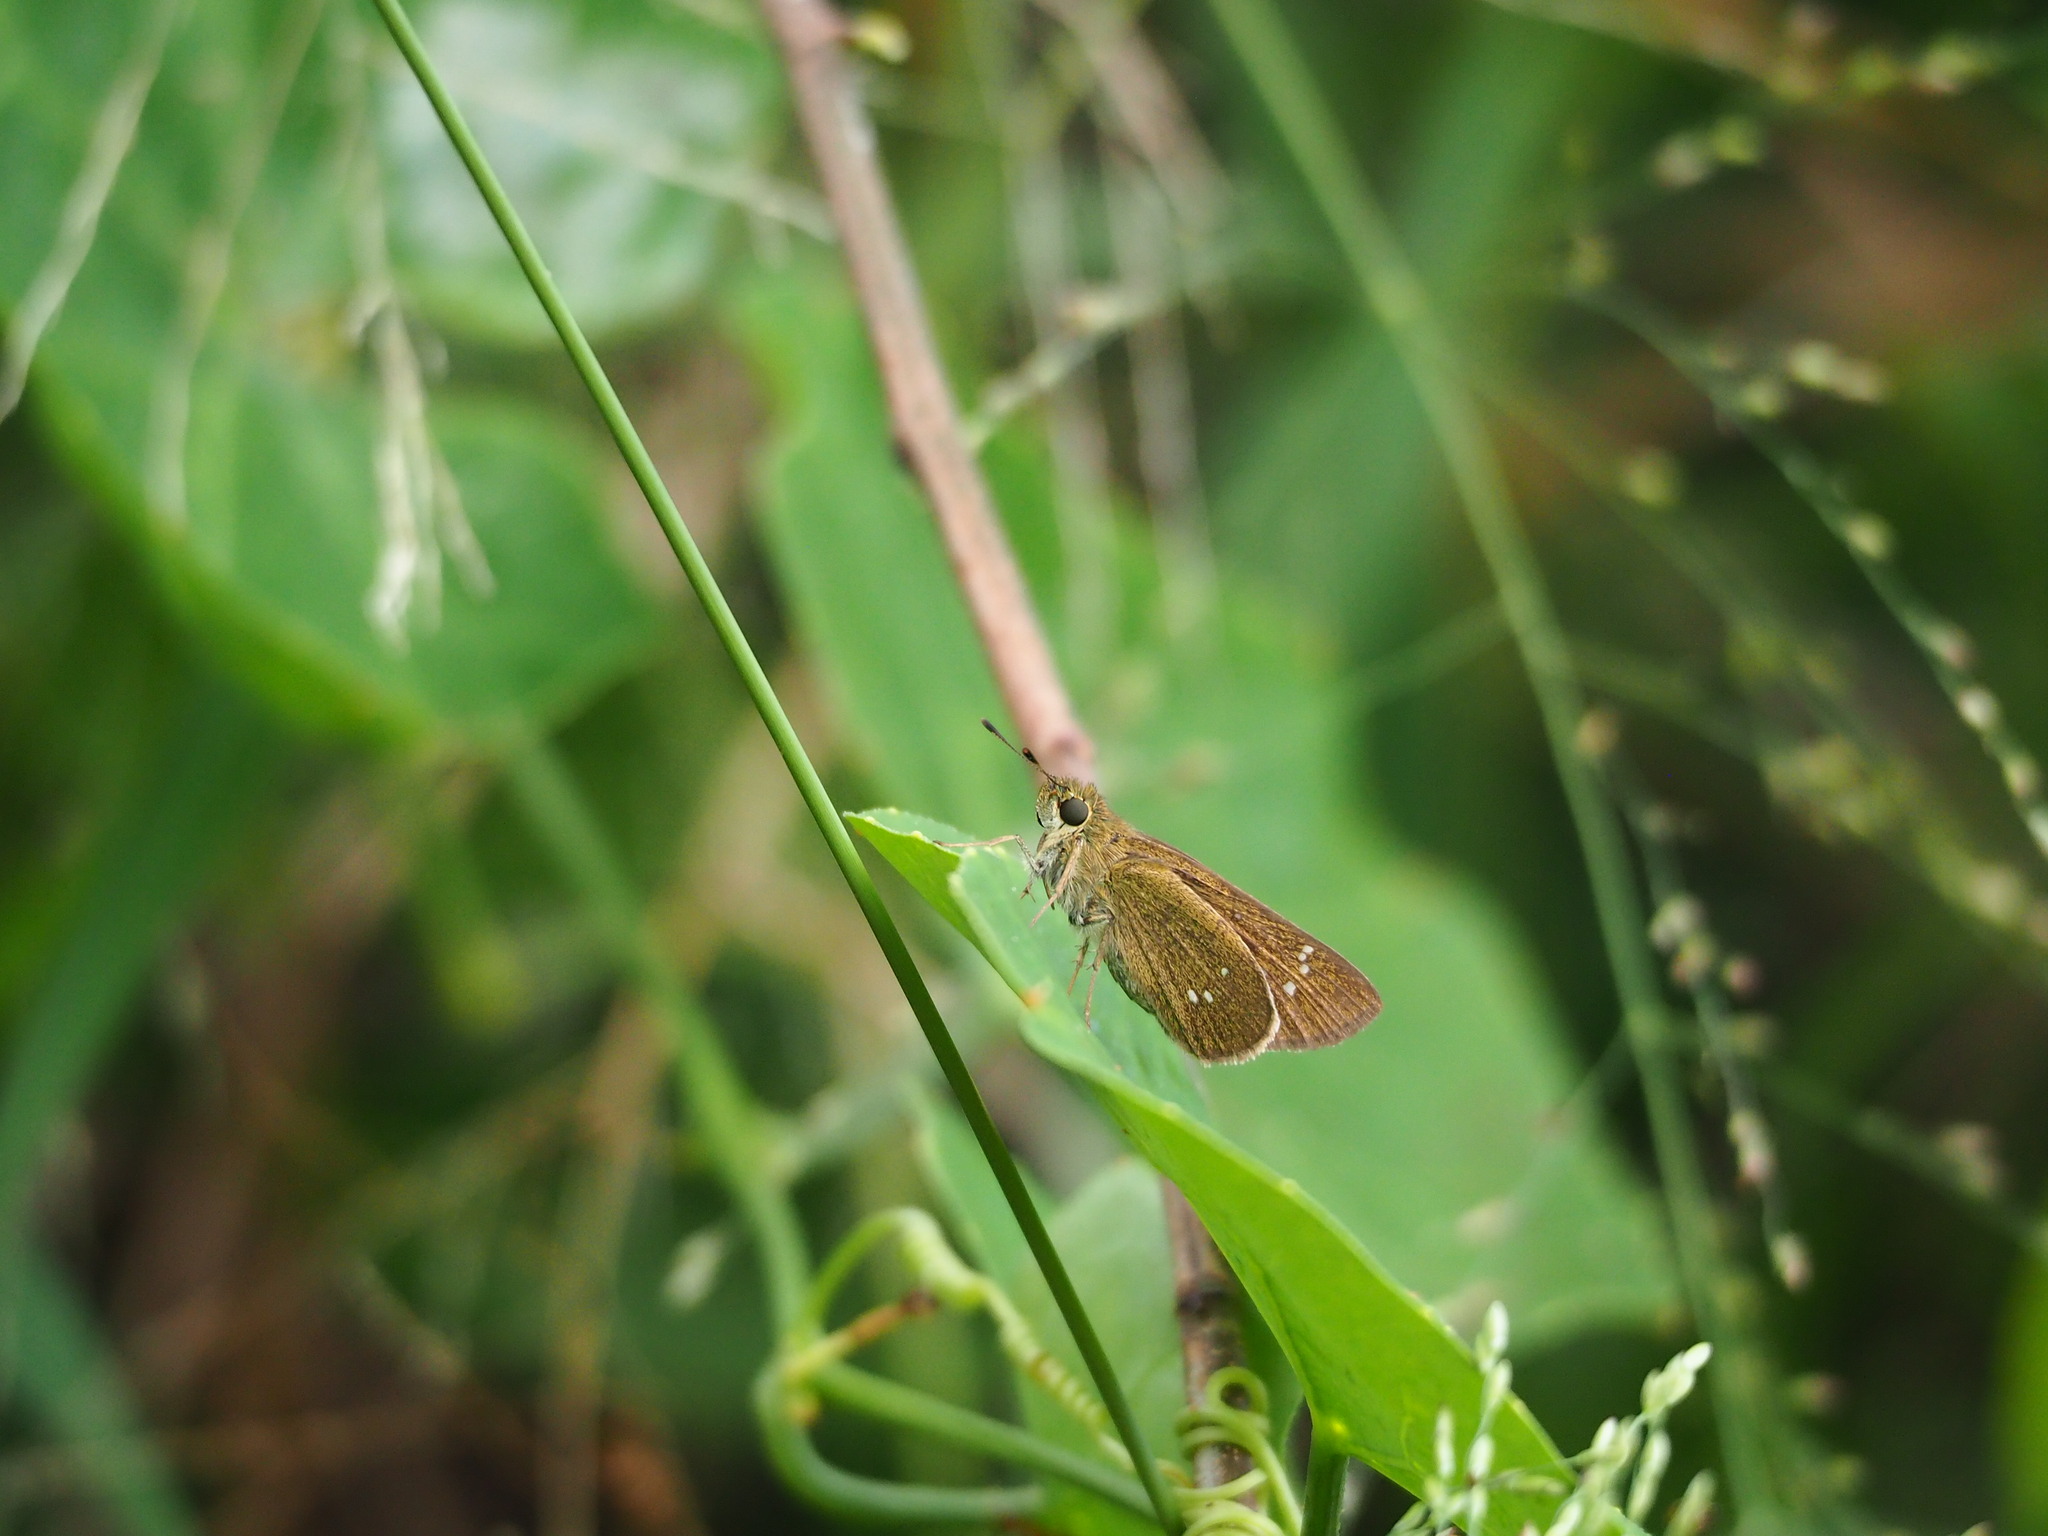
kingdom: Animalia
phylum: Arthropoda
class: Insecta
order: Lepidoptera
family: Hesperiidae
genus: Borbo
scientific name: Borbo cinnara
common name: Formosan swift
